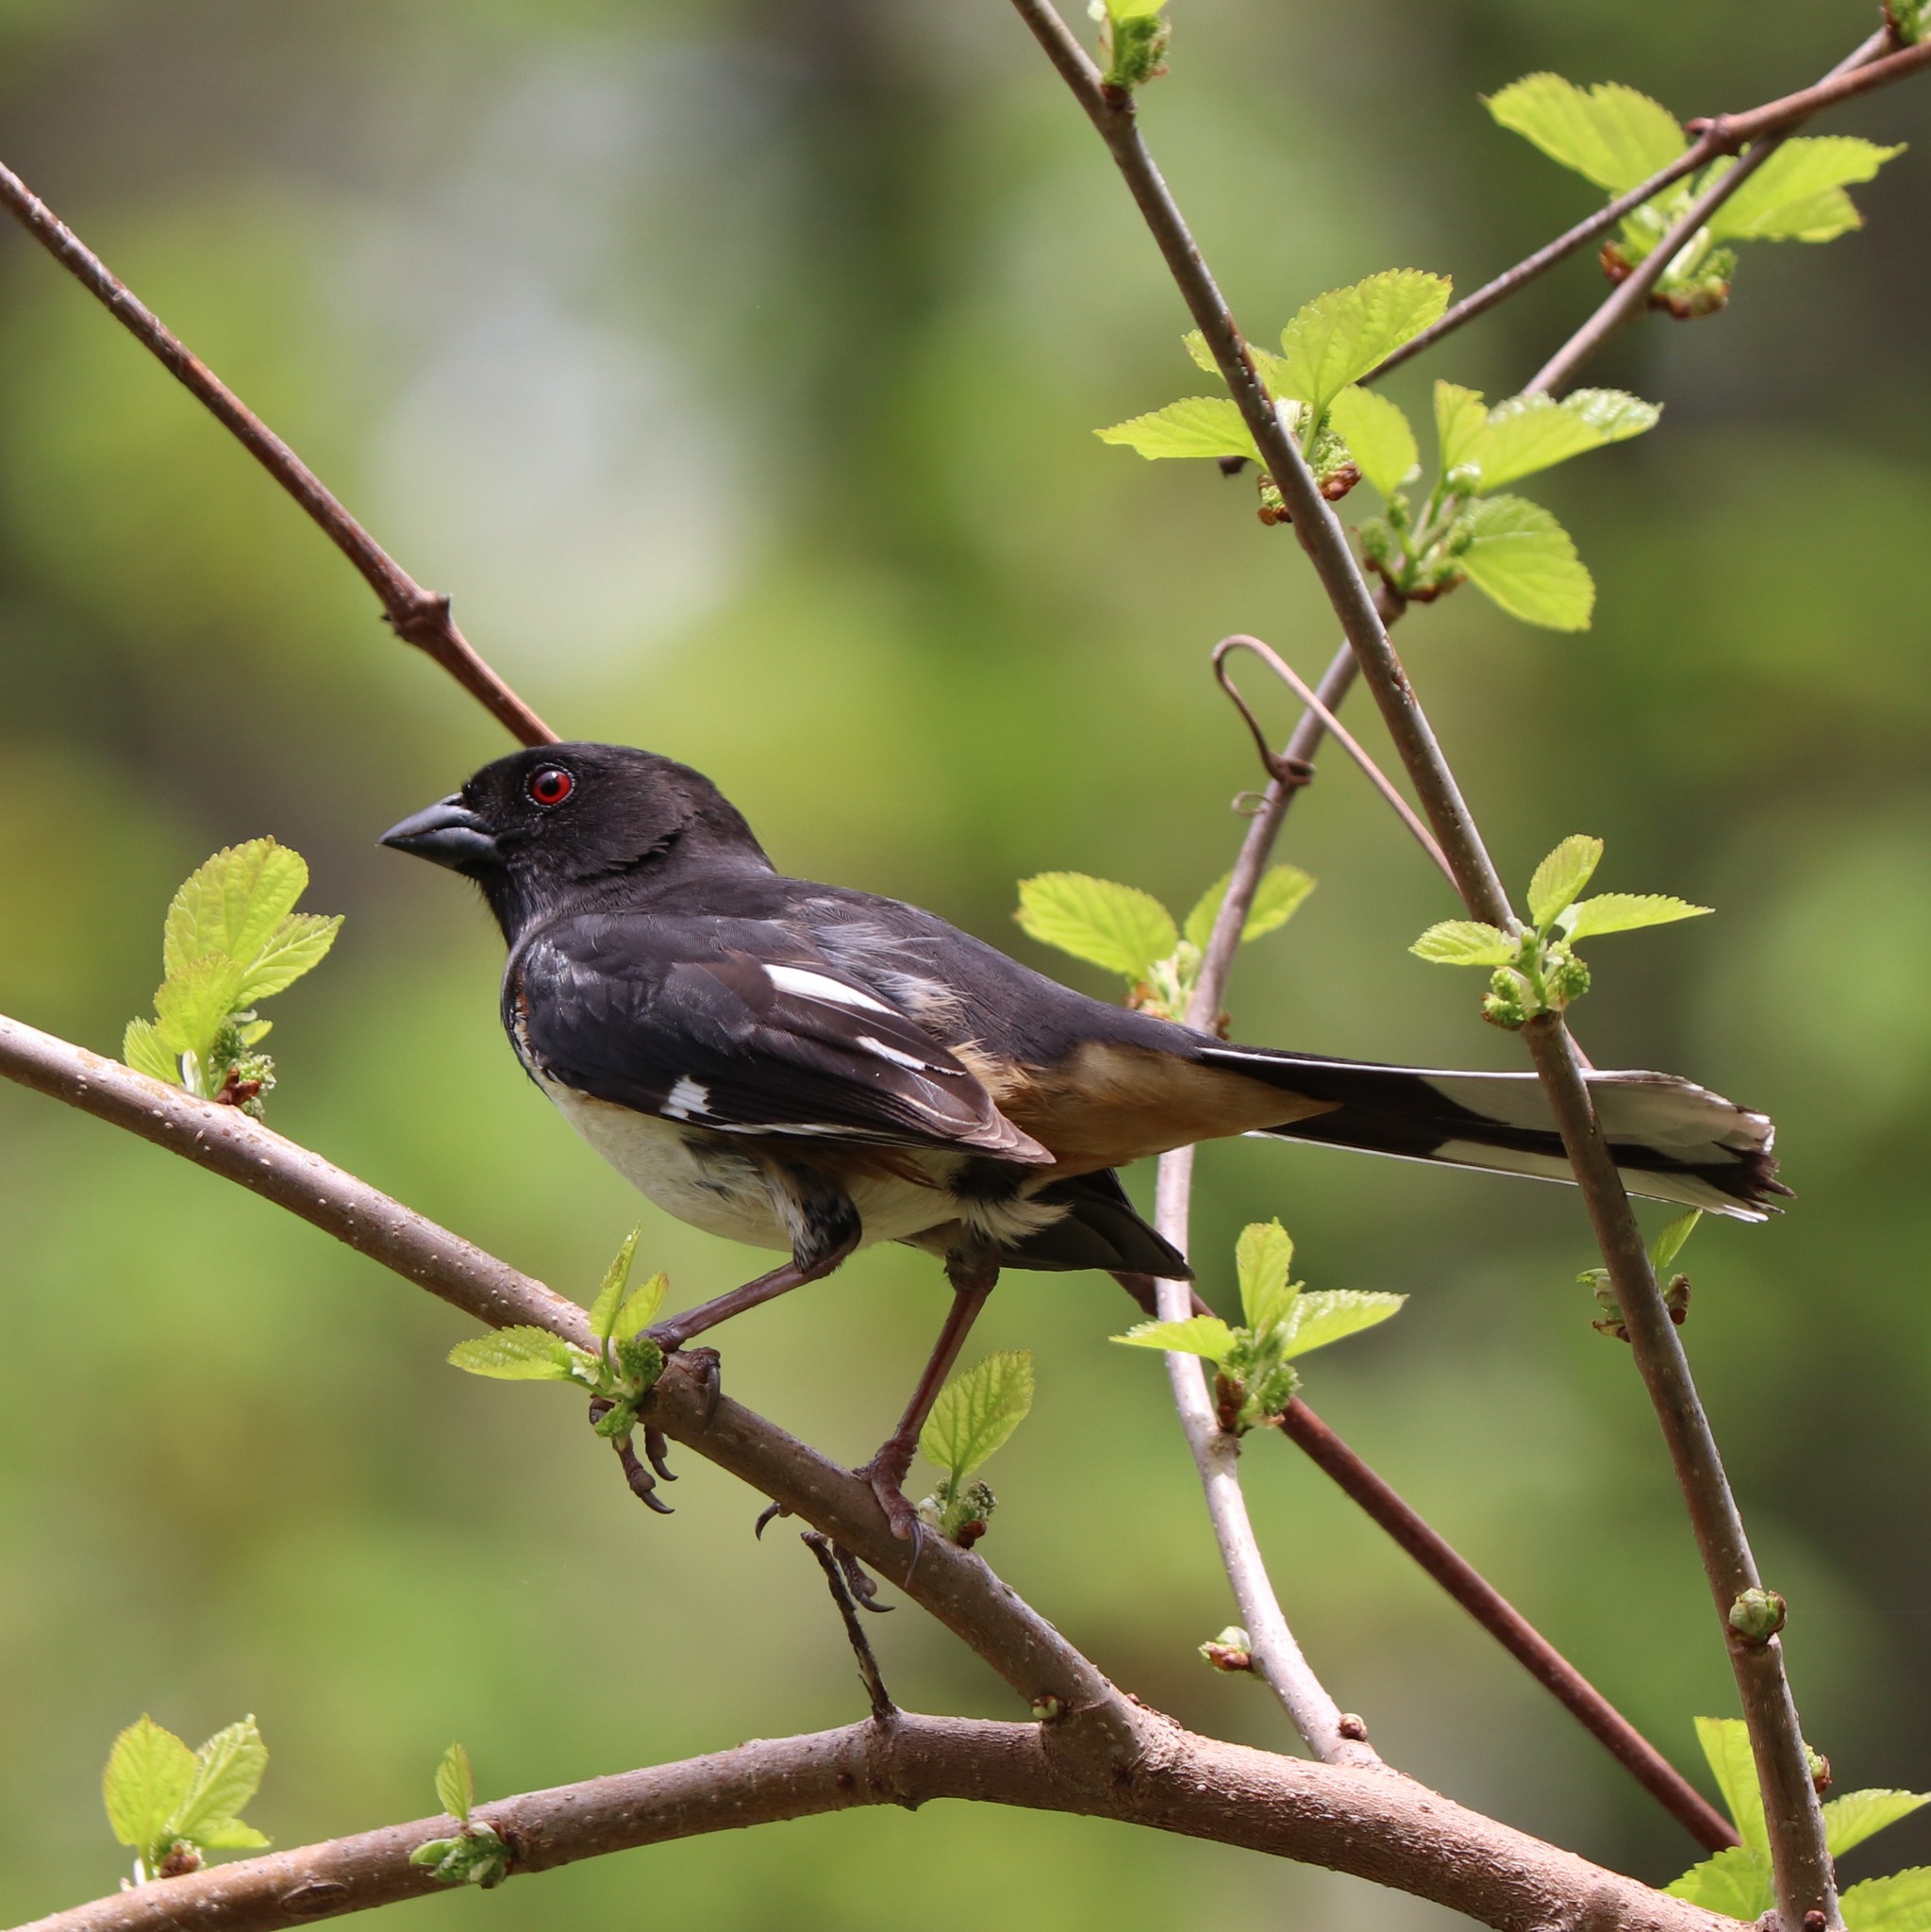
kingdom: Animalia
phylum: Chordata
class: Aves
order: Passeriformes
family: Passerellidae
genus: Pipilo
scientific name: Pipilo erythrophthalmus
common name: Eastern towhee
